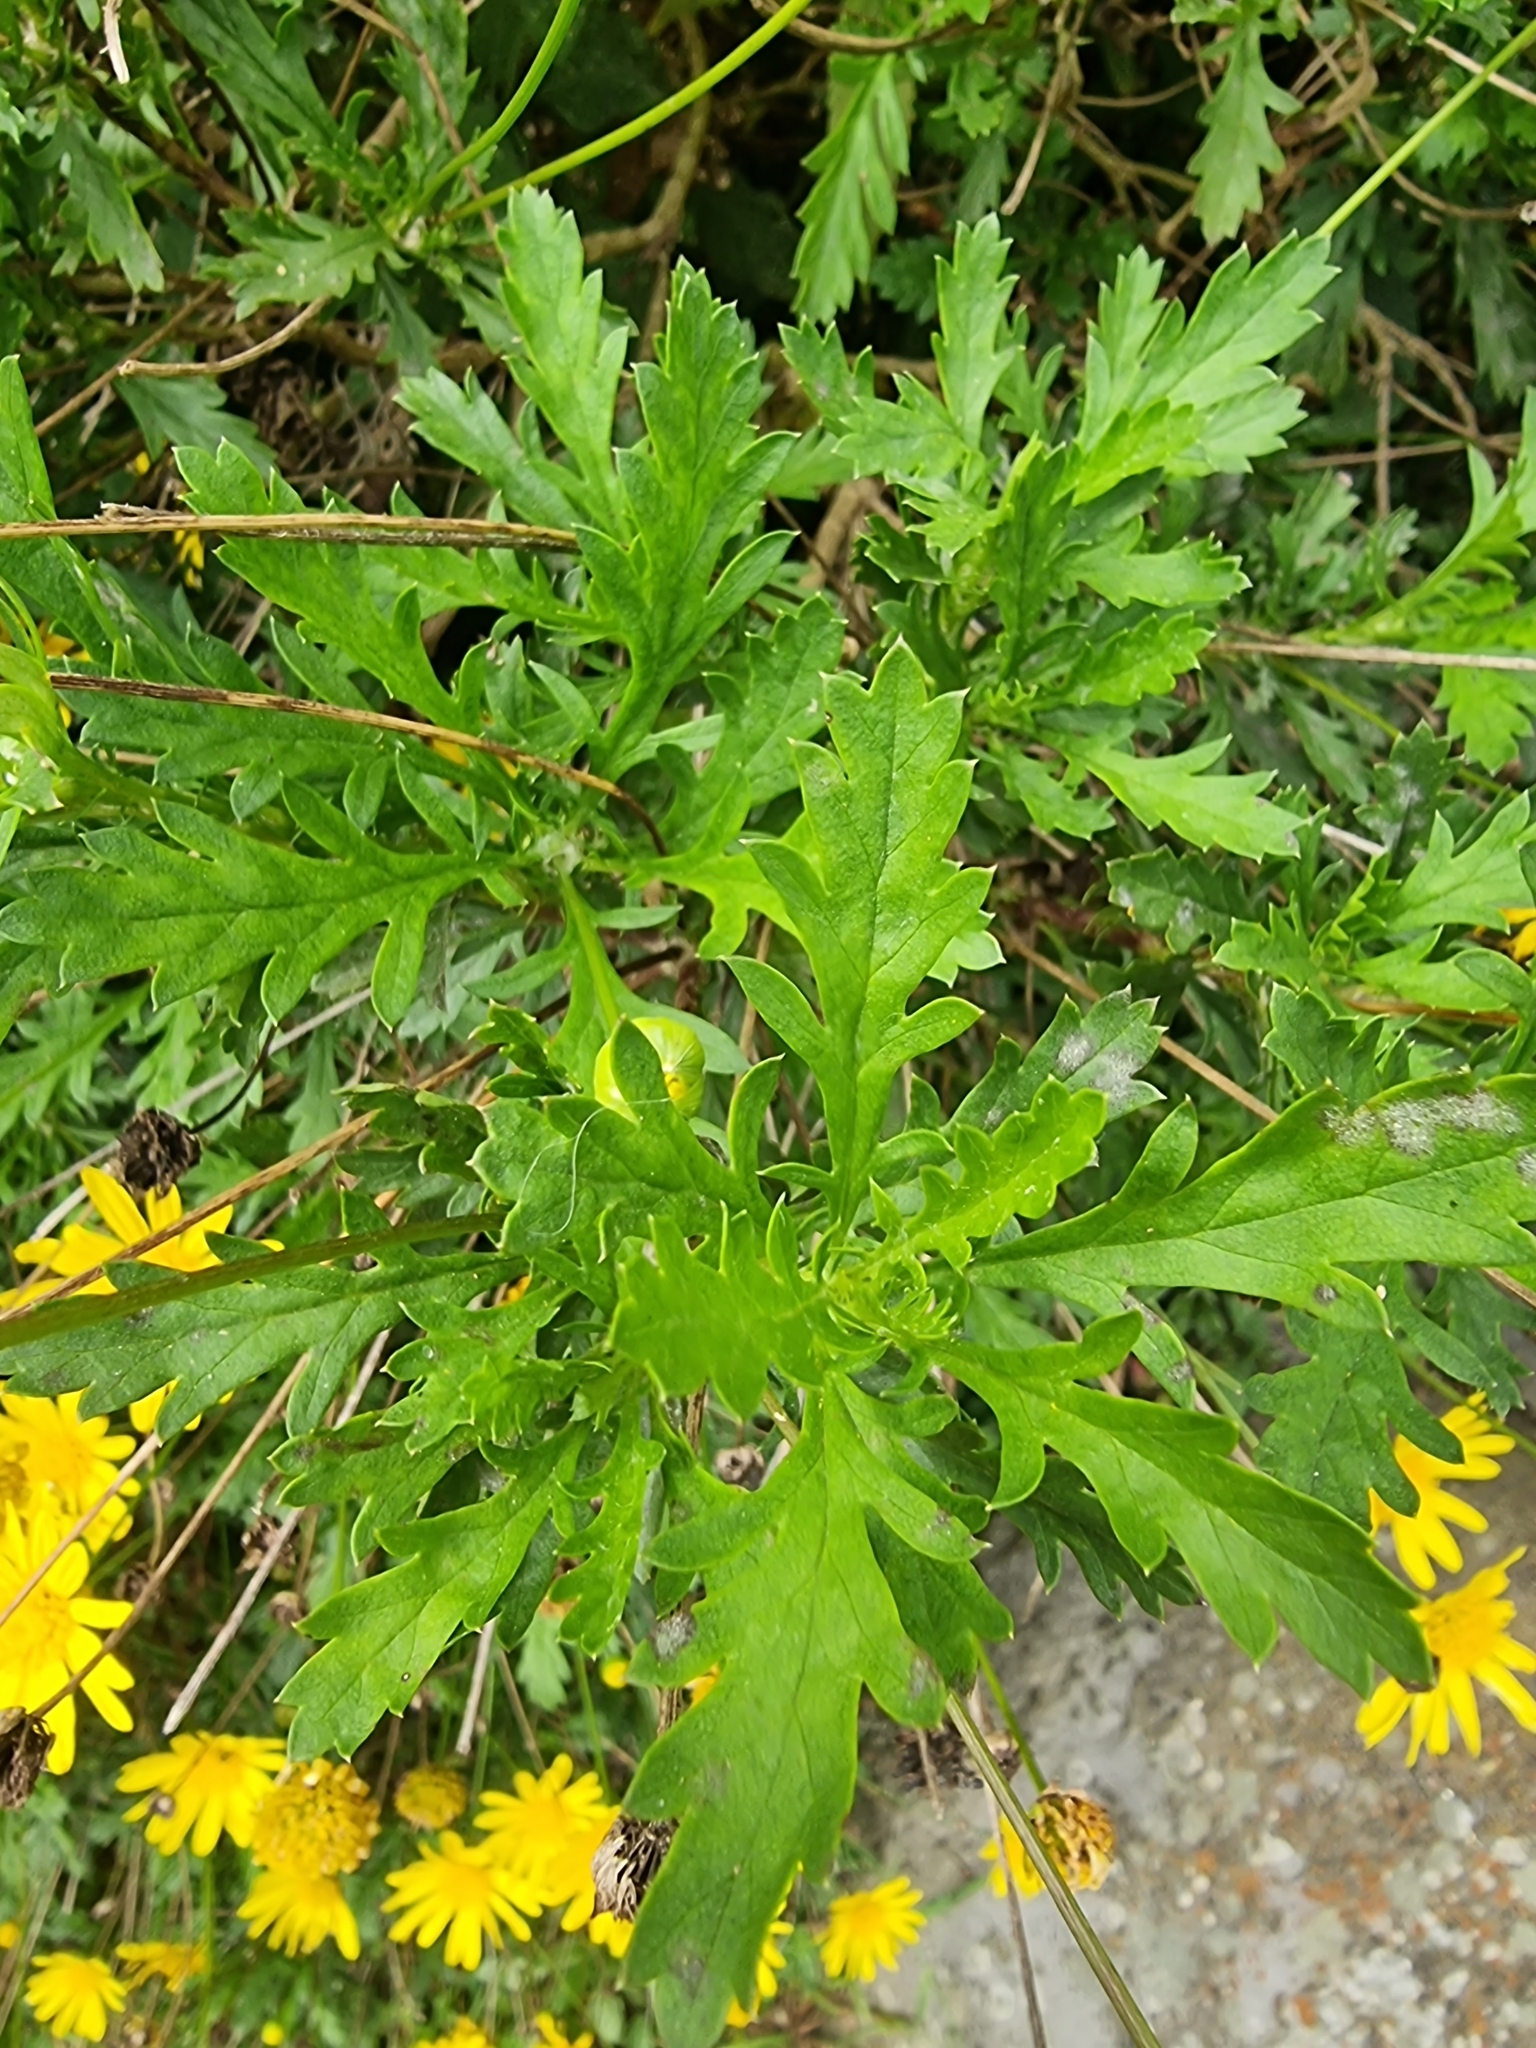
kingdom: Plantae
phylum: Tracheophyta
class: Magnoliopsida
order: Asterales
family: Asteraceae
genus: Euryops
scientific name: Euryops chrysanthemoides
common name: Bull's eye
